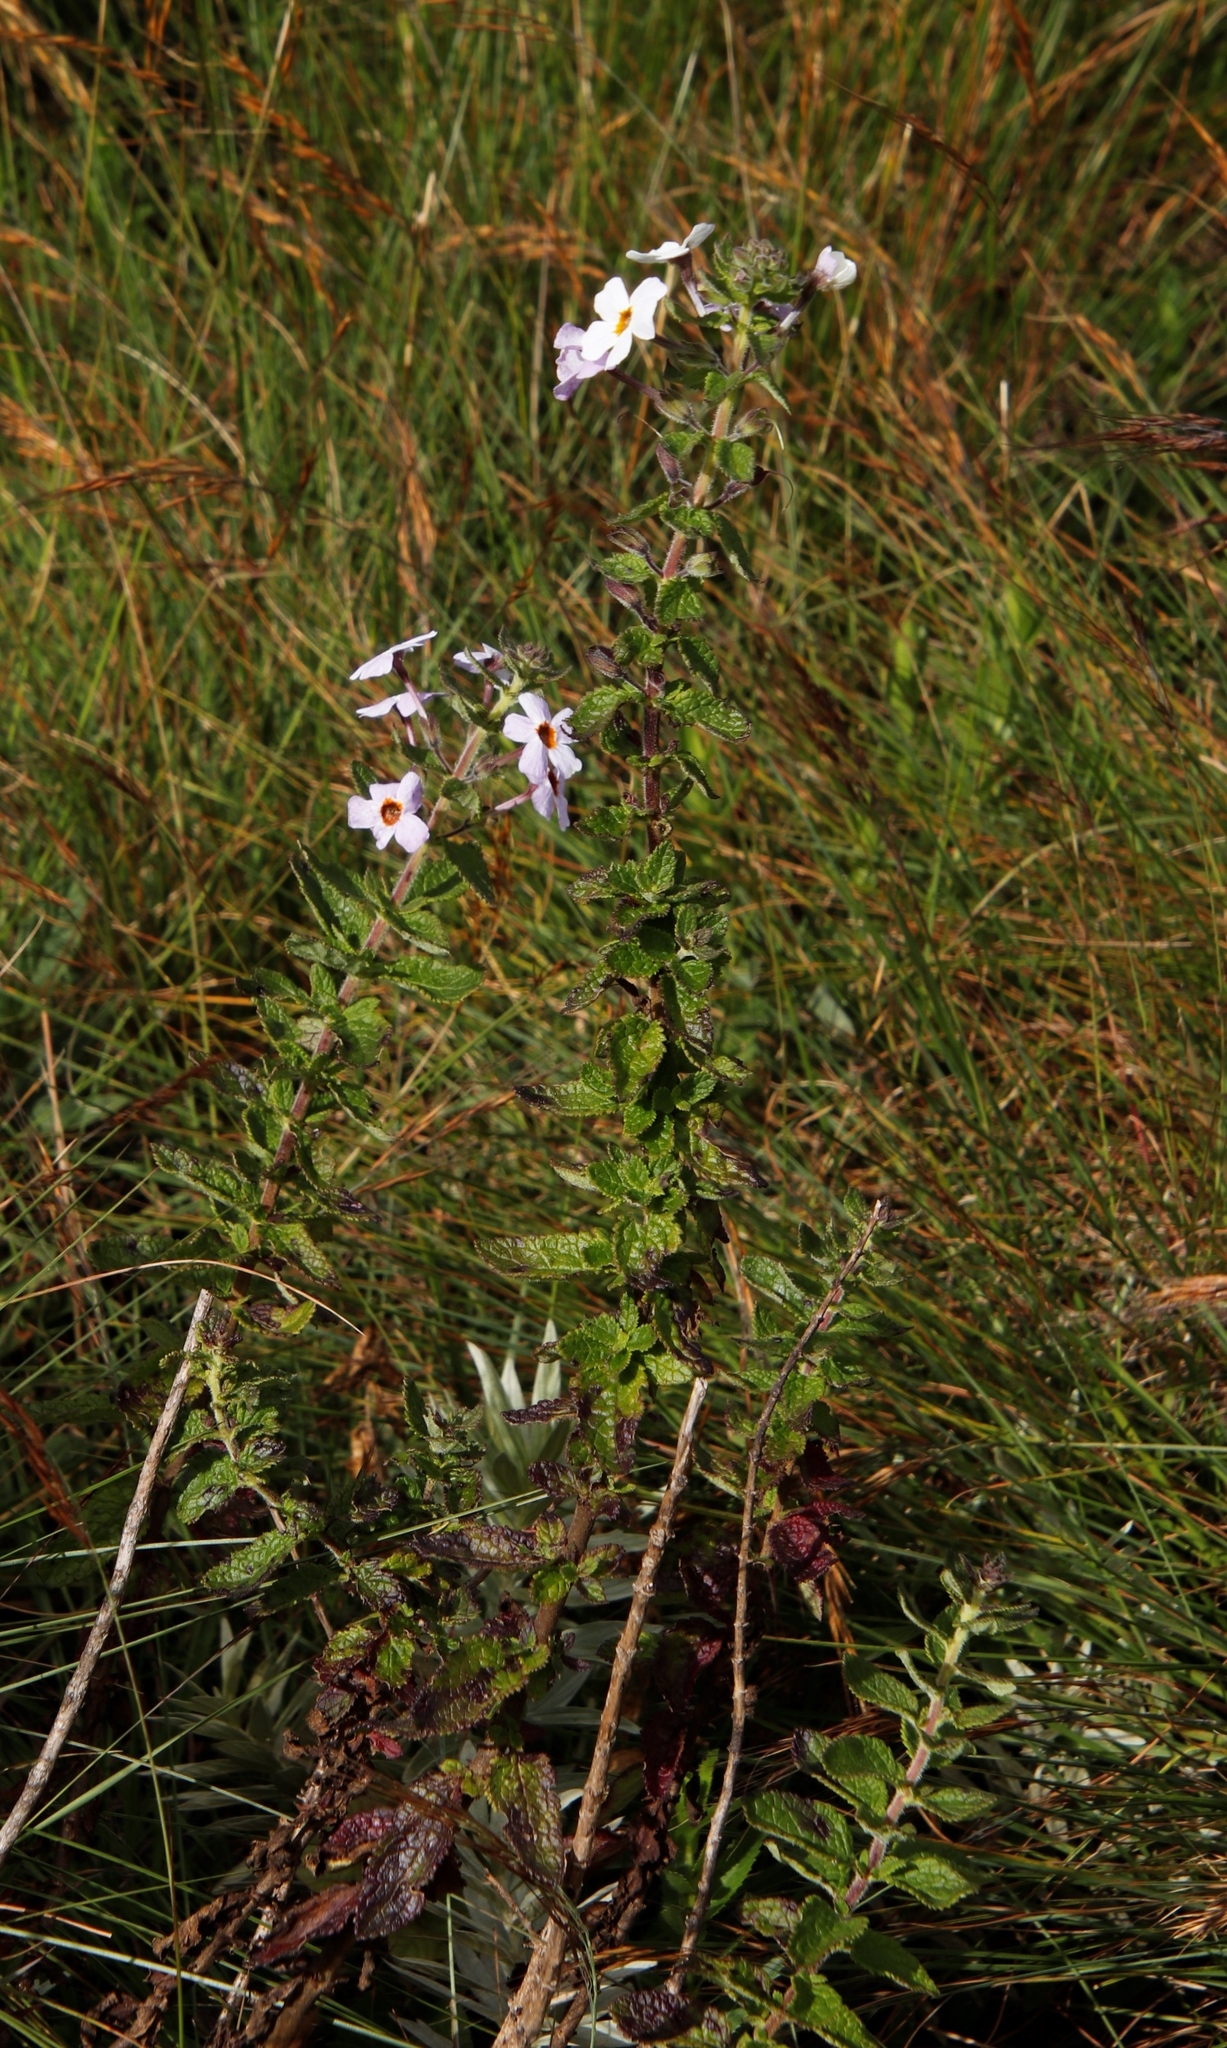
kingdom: Plantae
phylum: Tracheophyta
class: Magnoliopsida
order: Lamiales
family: Scrophulariaceae
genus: Jamesbrittenia
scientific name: Jamesbrittenia carvalhoi
